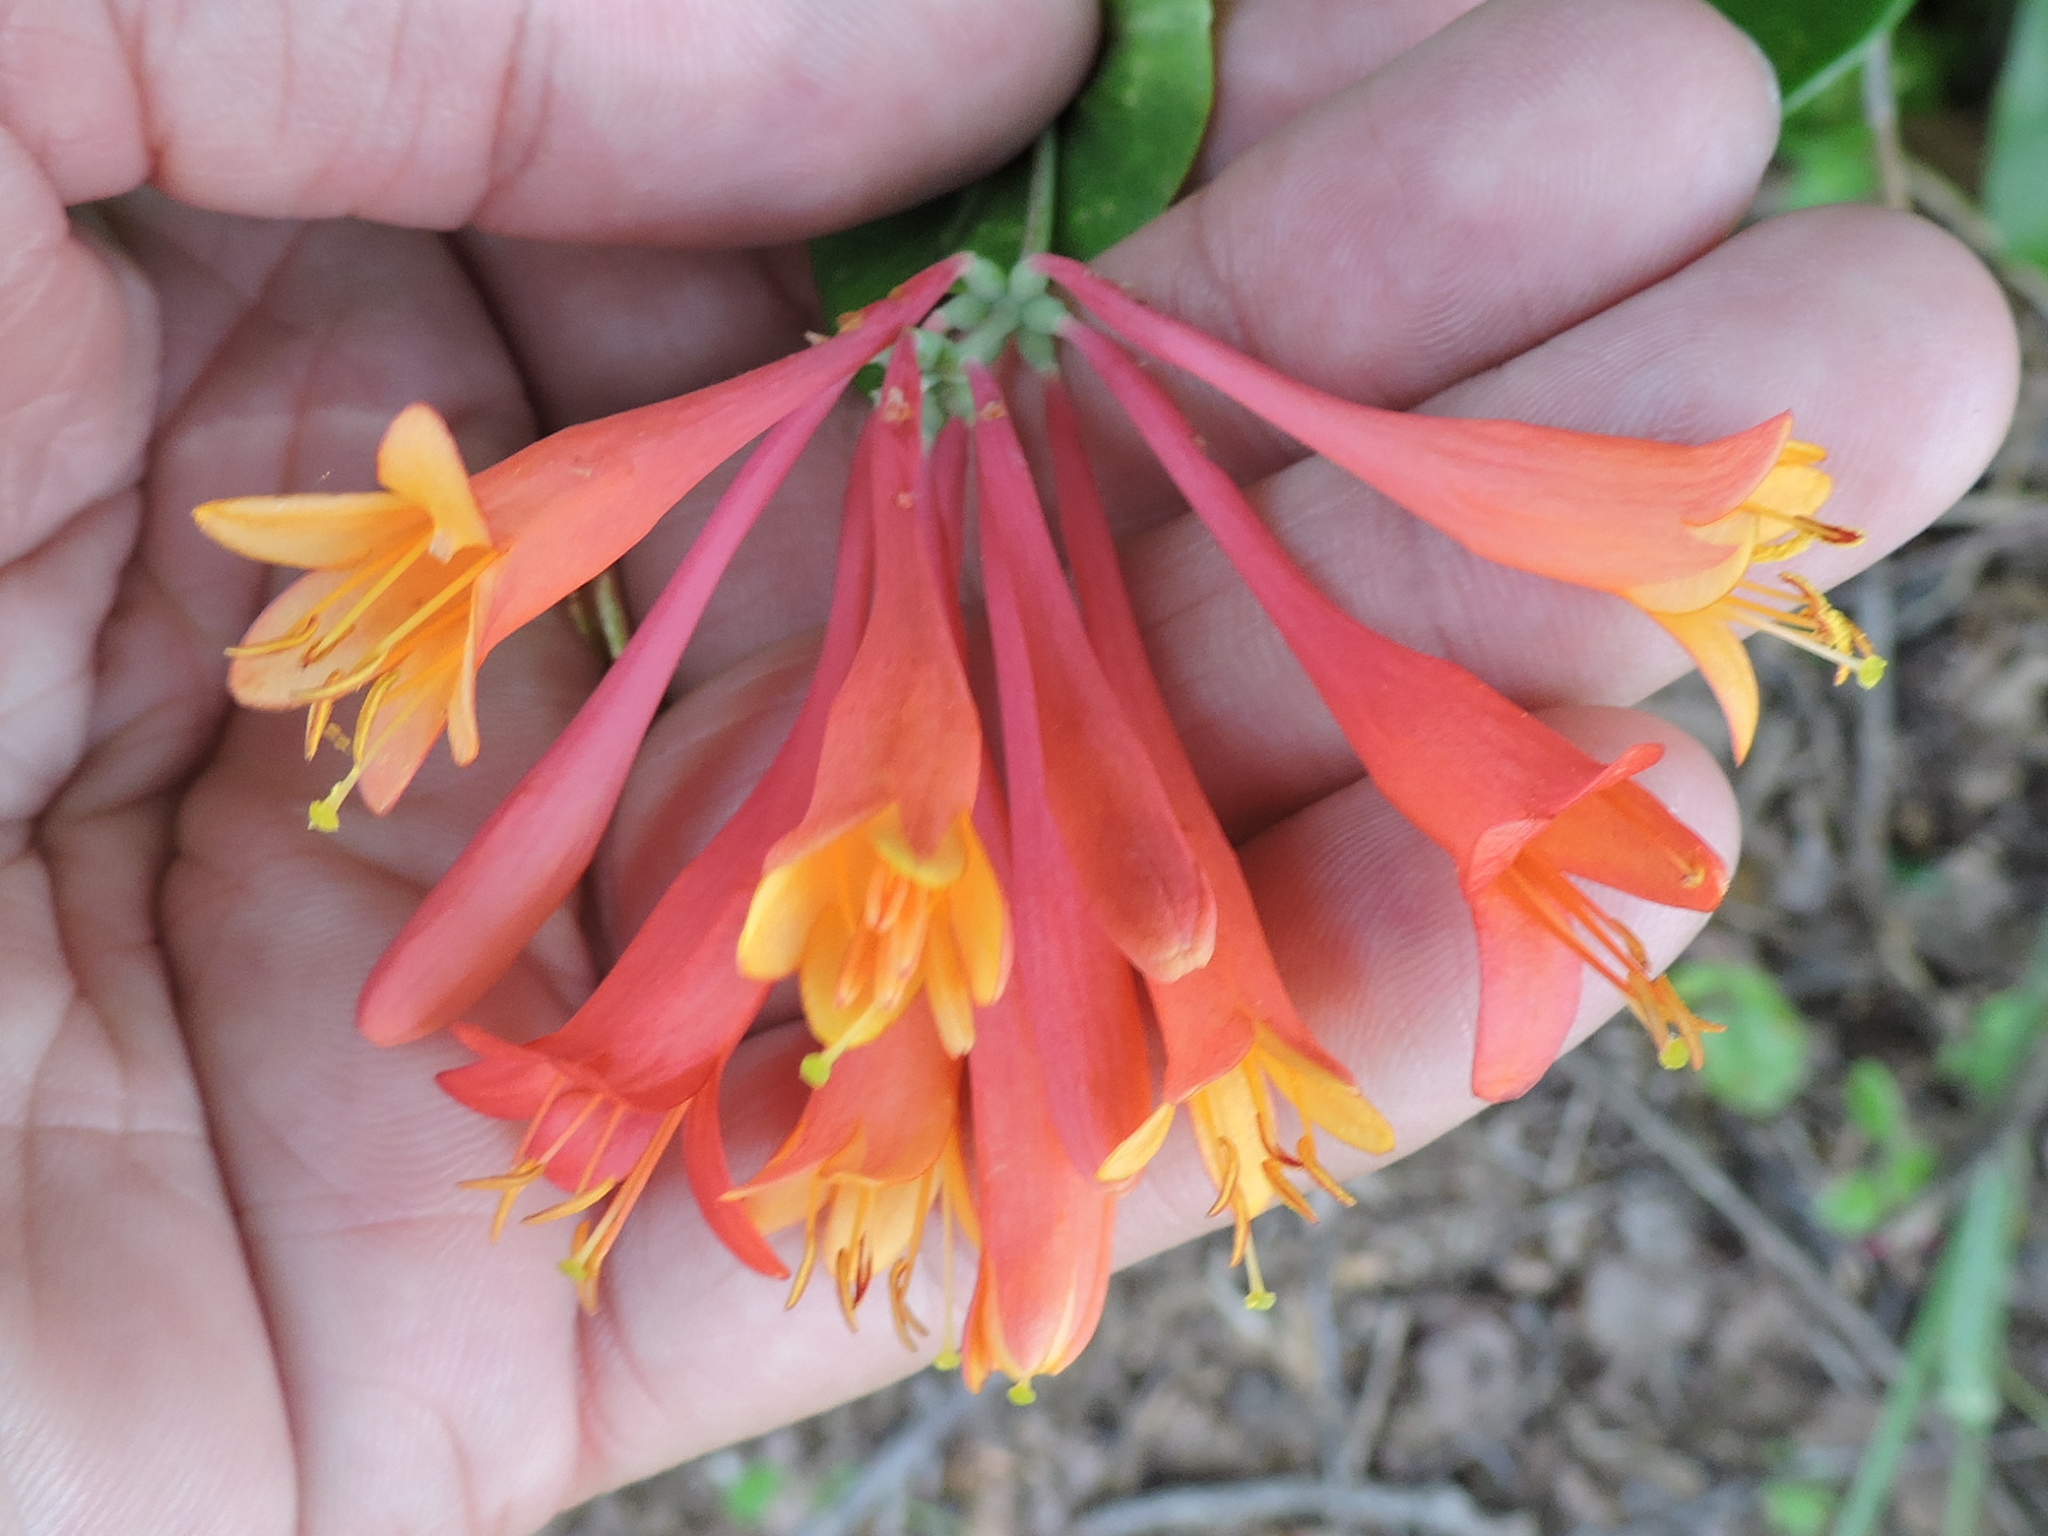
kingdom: Plantae
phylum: Tracheophyta
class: Magnoliopsida
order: Dipsacales
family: Caprifoliaceae
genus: Lonicera
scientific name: Lonicera sempervirens
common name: Coral honeysuckle
